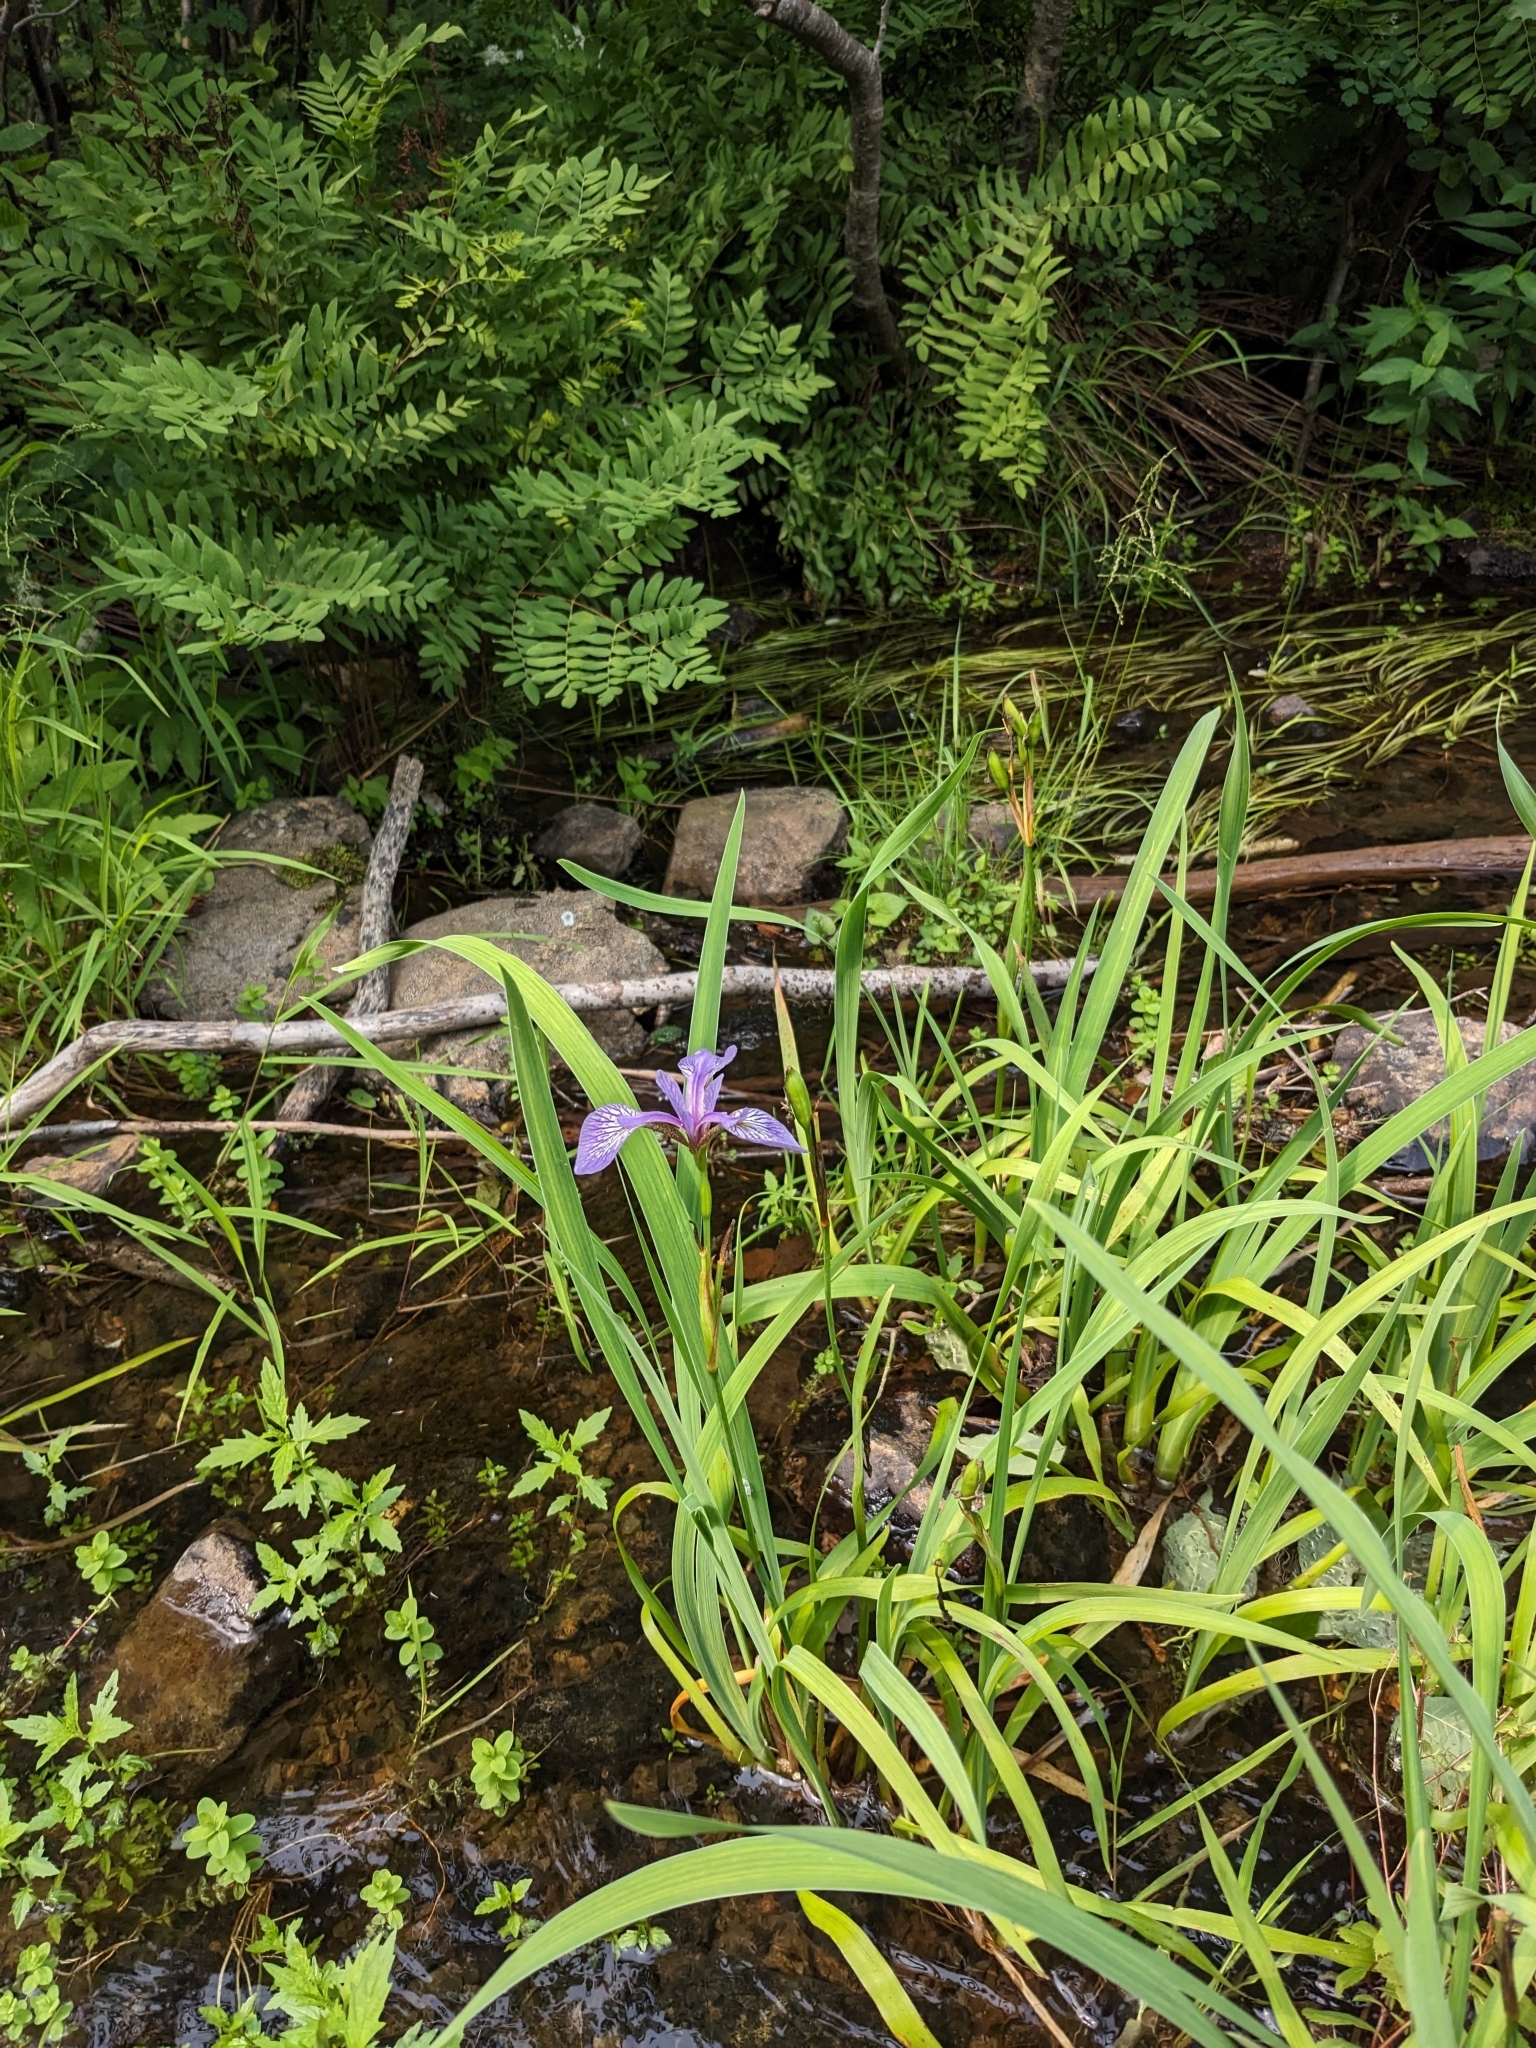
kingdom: Plantae
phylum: Tracheophyta
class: Liliopsida
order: Asparagales
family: Iridaceae
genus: Iris
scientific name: Iris versicolor
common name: Purple iris
